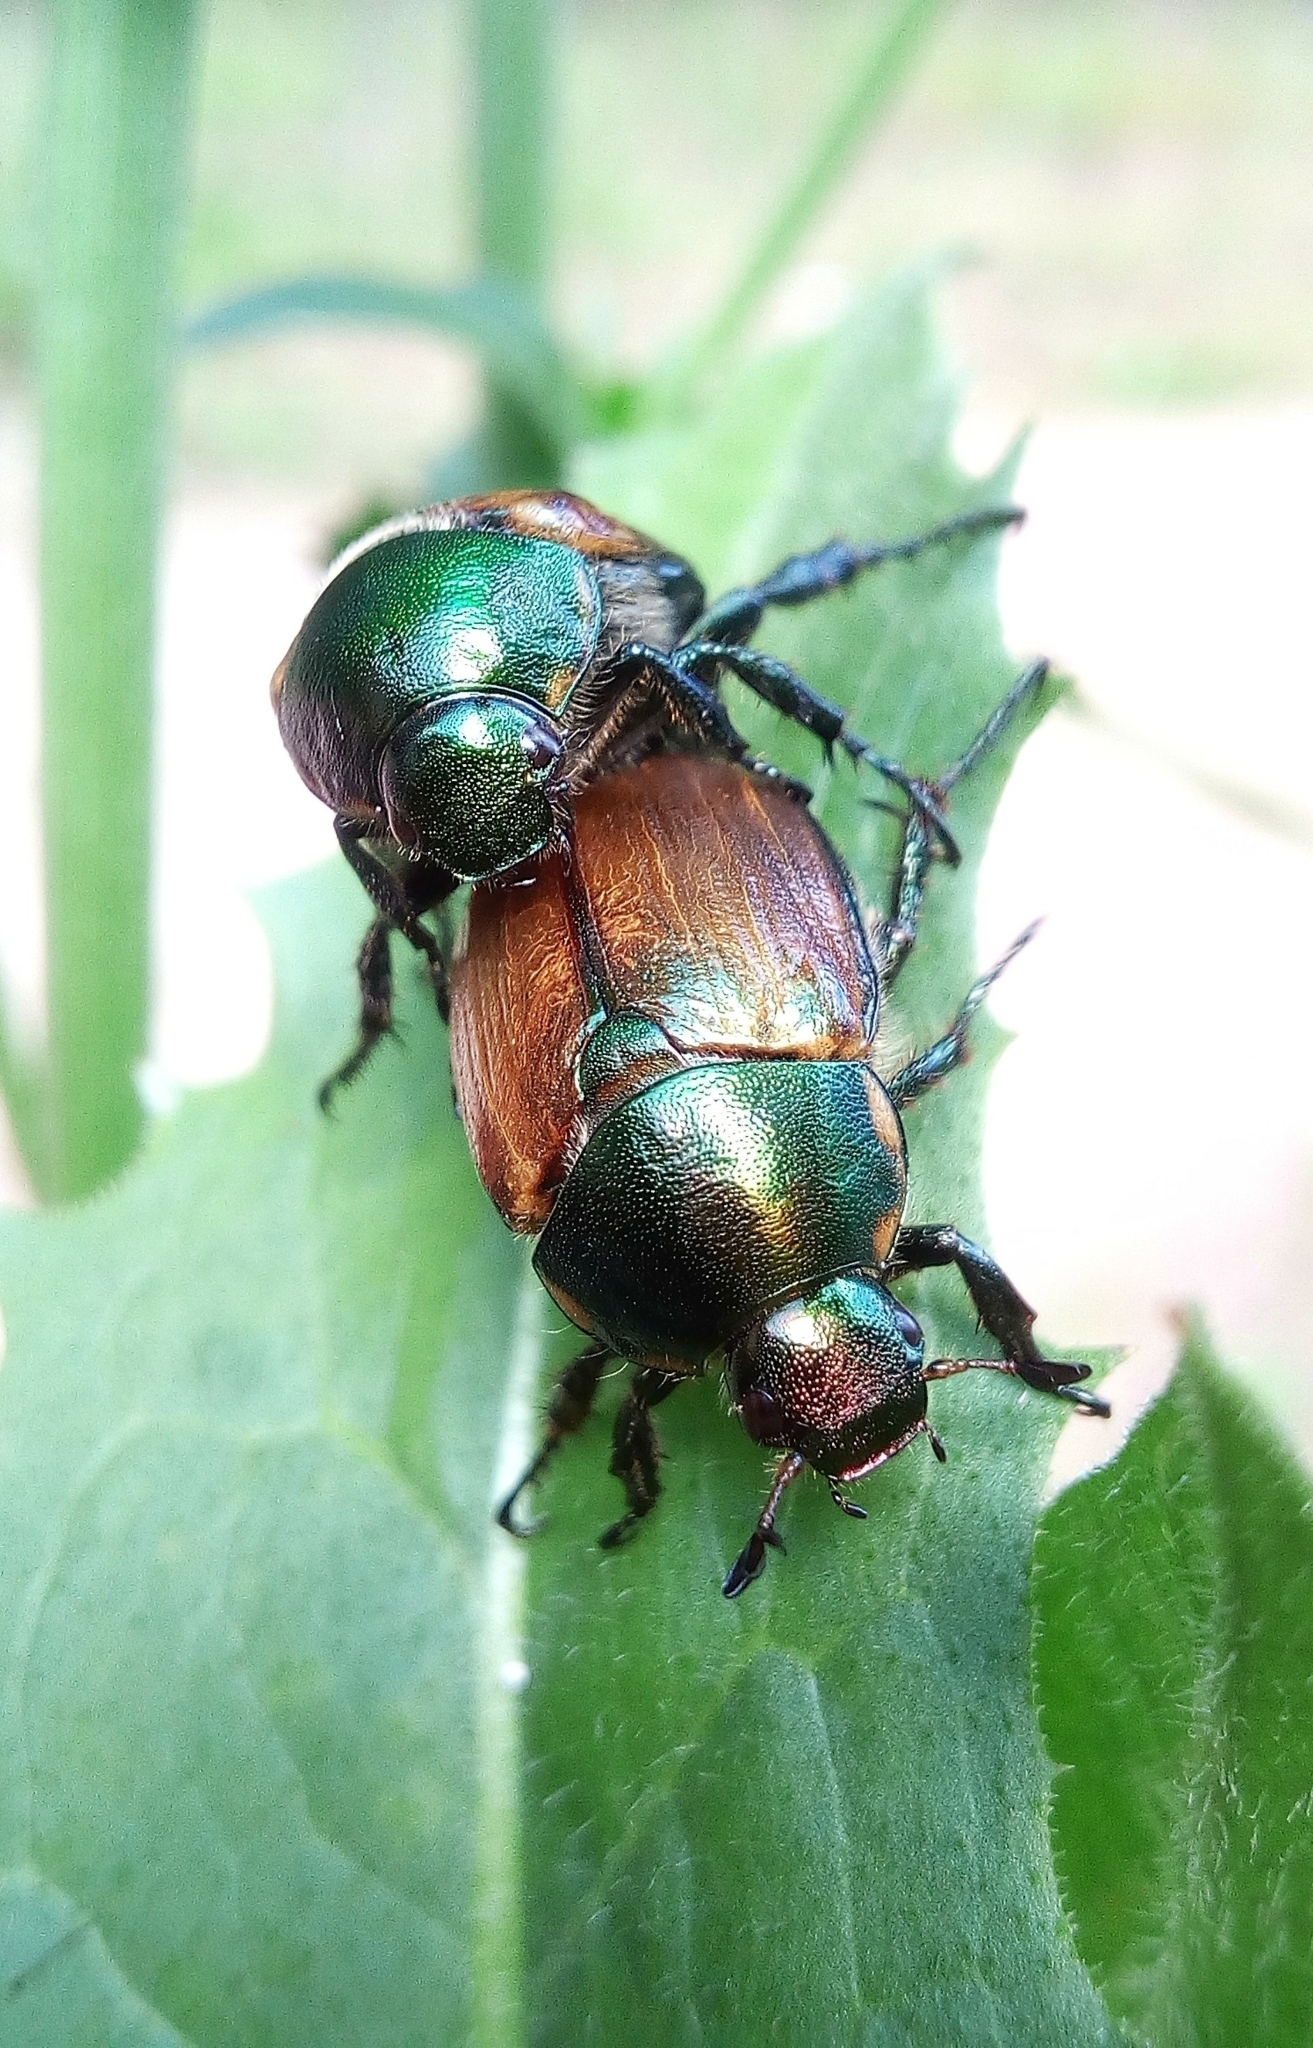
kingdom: Animalia
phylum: Arthropoda
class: Insecta
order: Coleoptera
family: Scarabaeidae
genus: Anomala
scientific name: Anomala dubia
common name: Dune chafer
